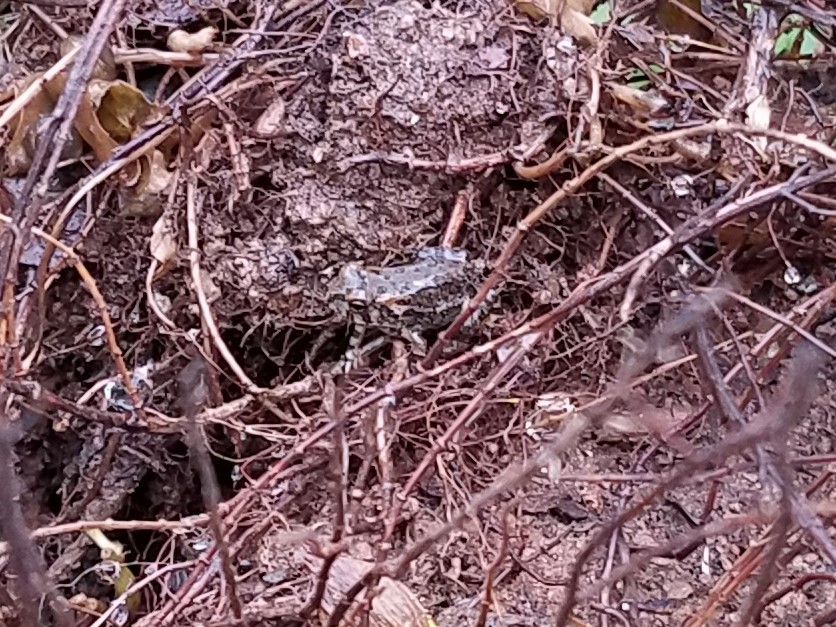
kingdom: Animalia
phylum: Chordata
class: Amphibia
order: Anura
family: Bufonidae
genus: Anaxyrus
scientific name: Anaxyrus
